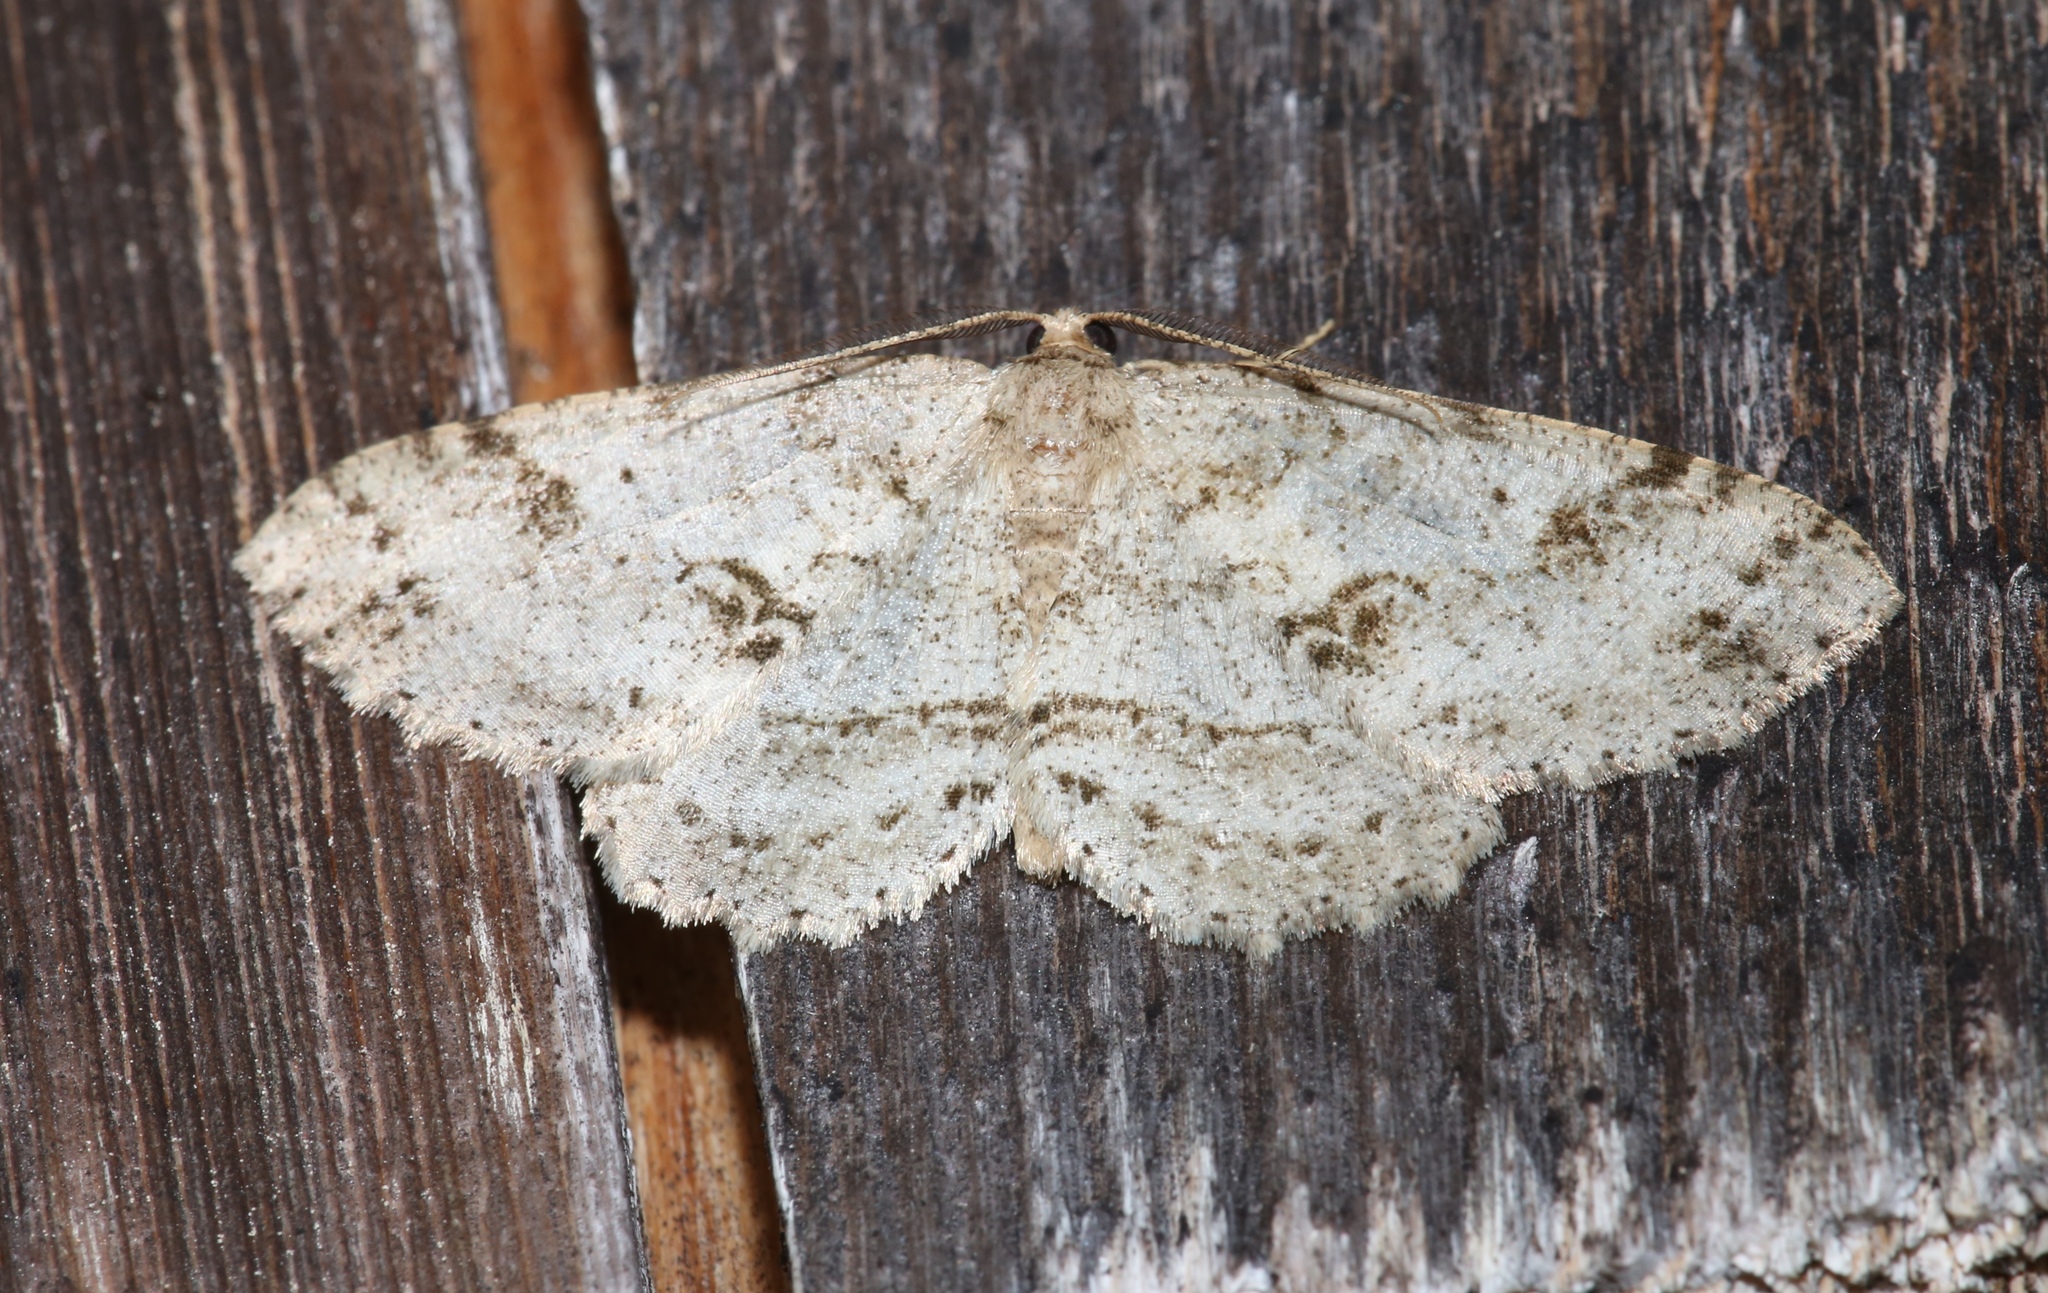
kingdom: Animalia
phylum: Arthropoda
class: Insecta
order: Lepidoptera
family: Geometridae
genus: Melanolophia
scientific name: Melanolophia canadaria
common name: Canadian melanolophia
